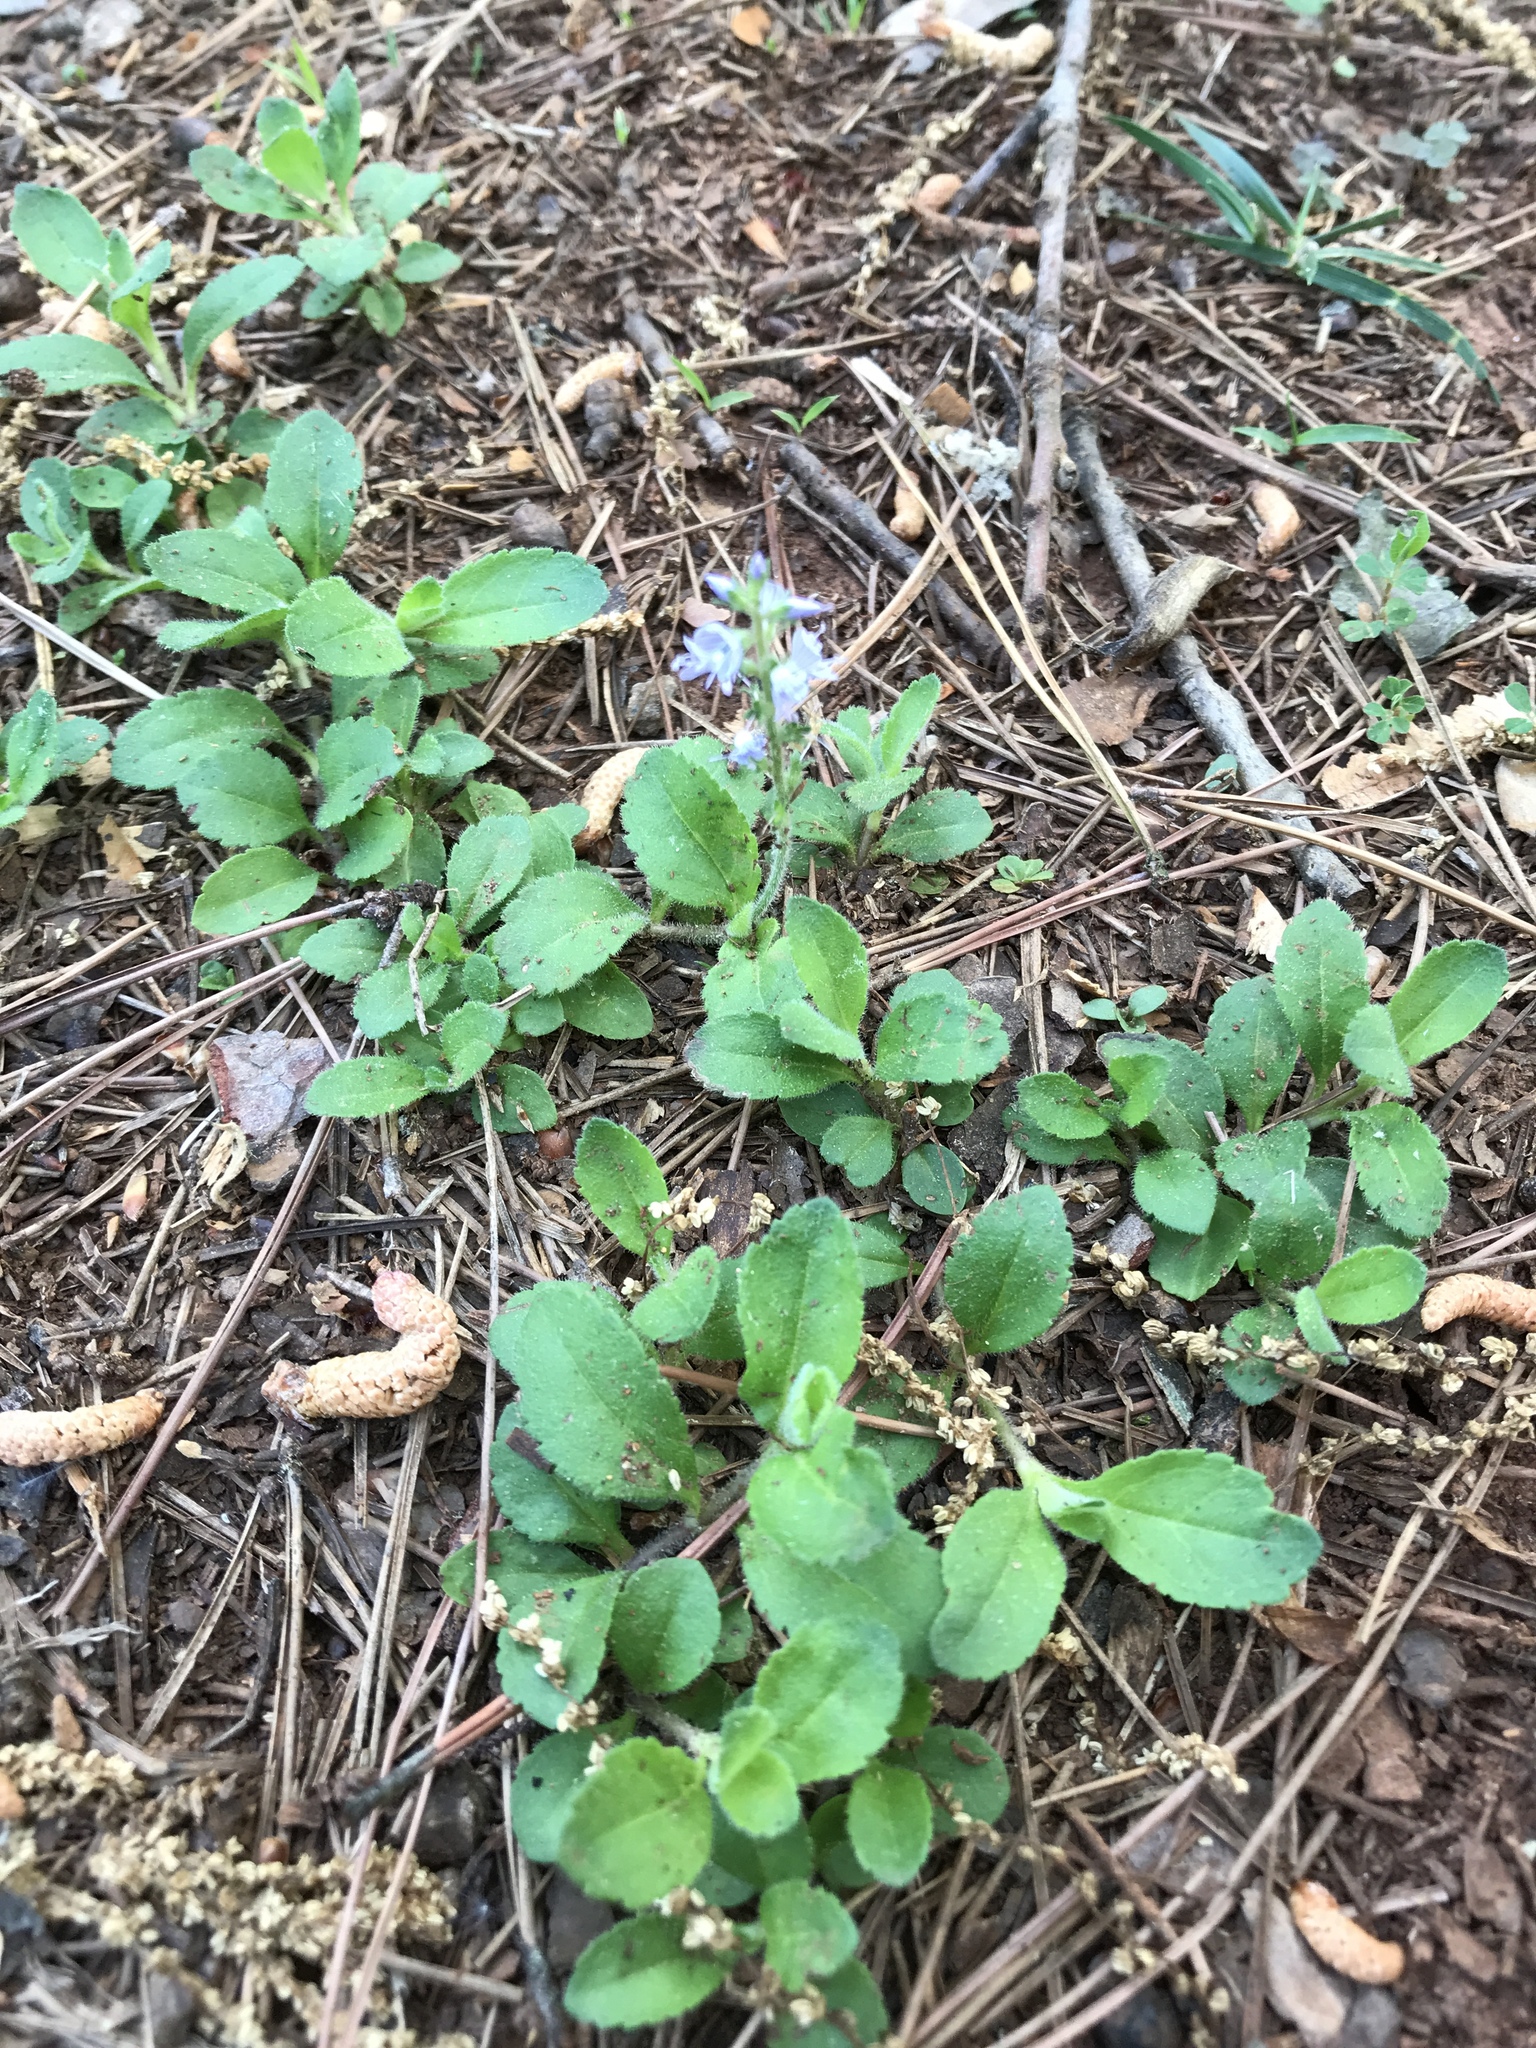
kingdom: Plantae
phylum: Tracheophyta
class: Magnoliopsida
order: Lamiales
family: Plantaginaceae
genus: Veronica
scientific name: Veronica officinalis
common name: Common speedwell
